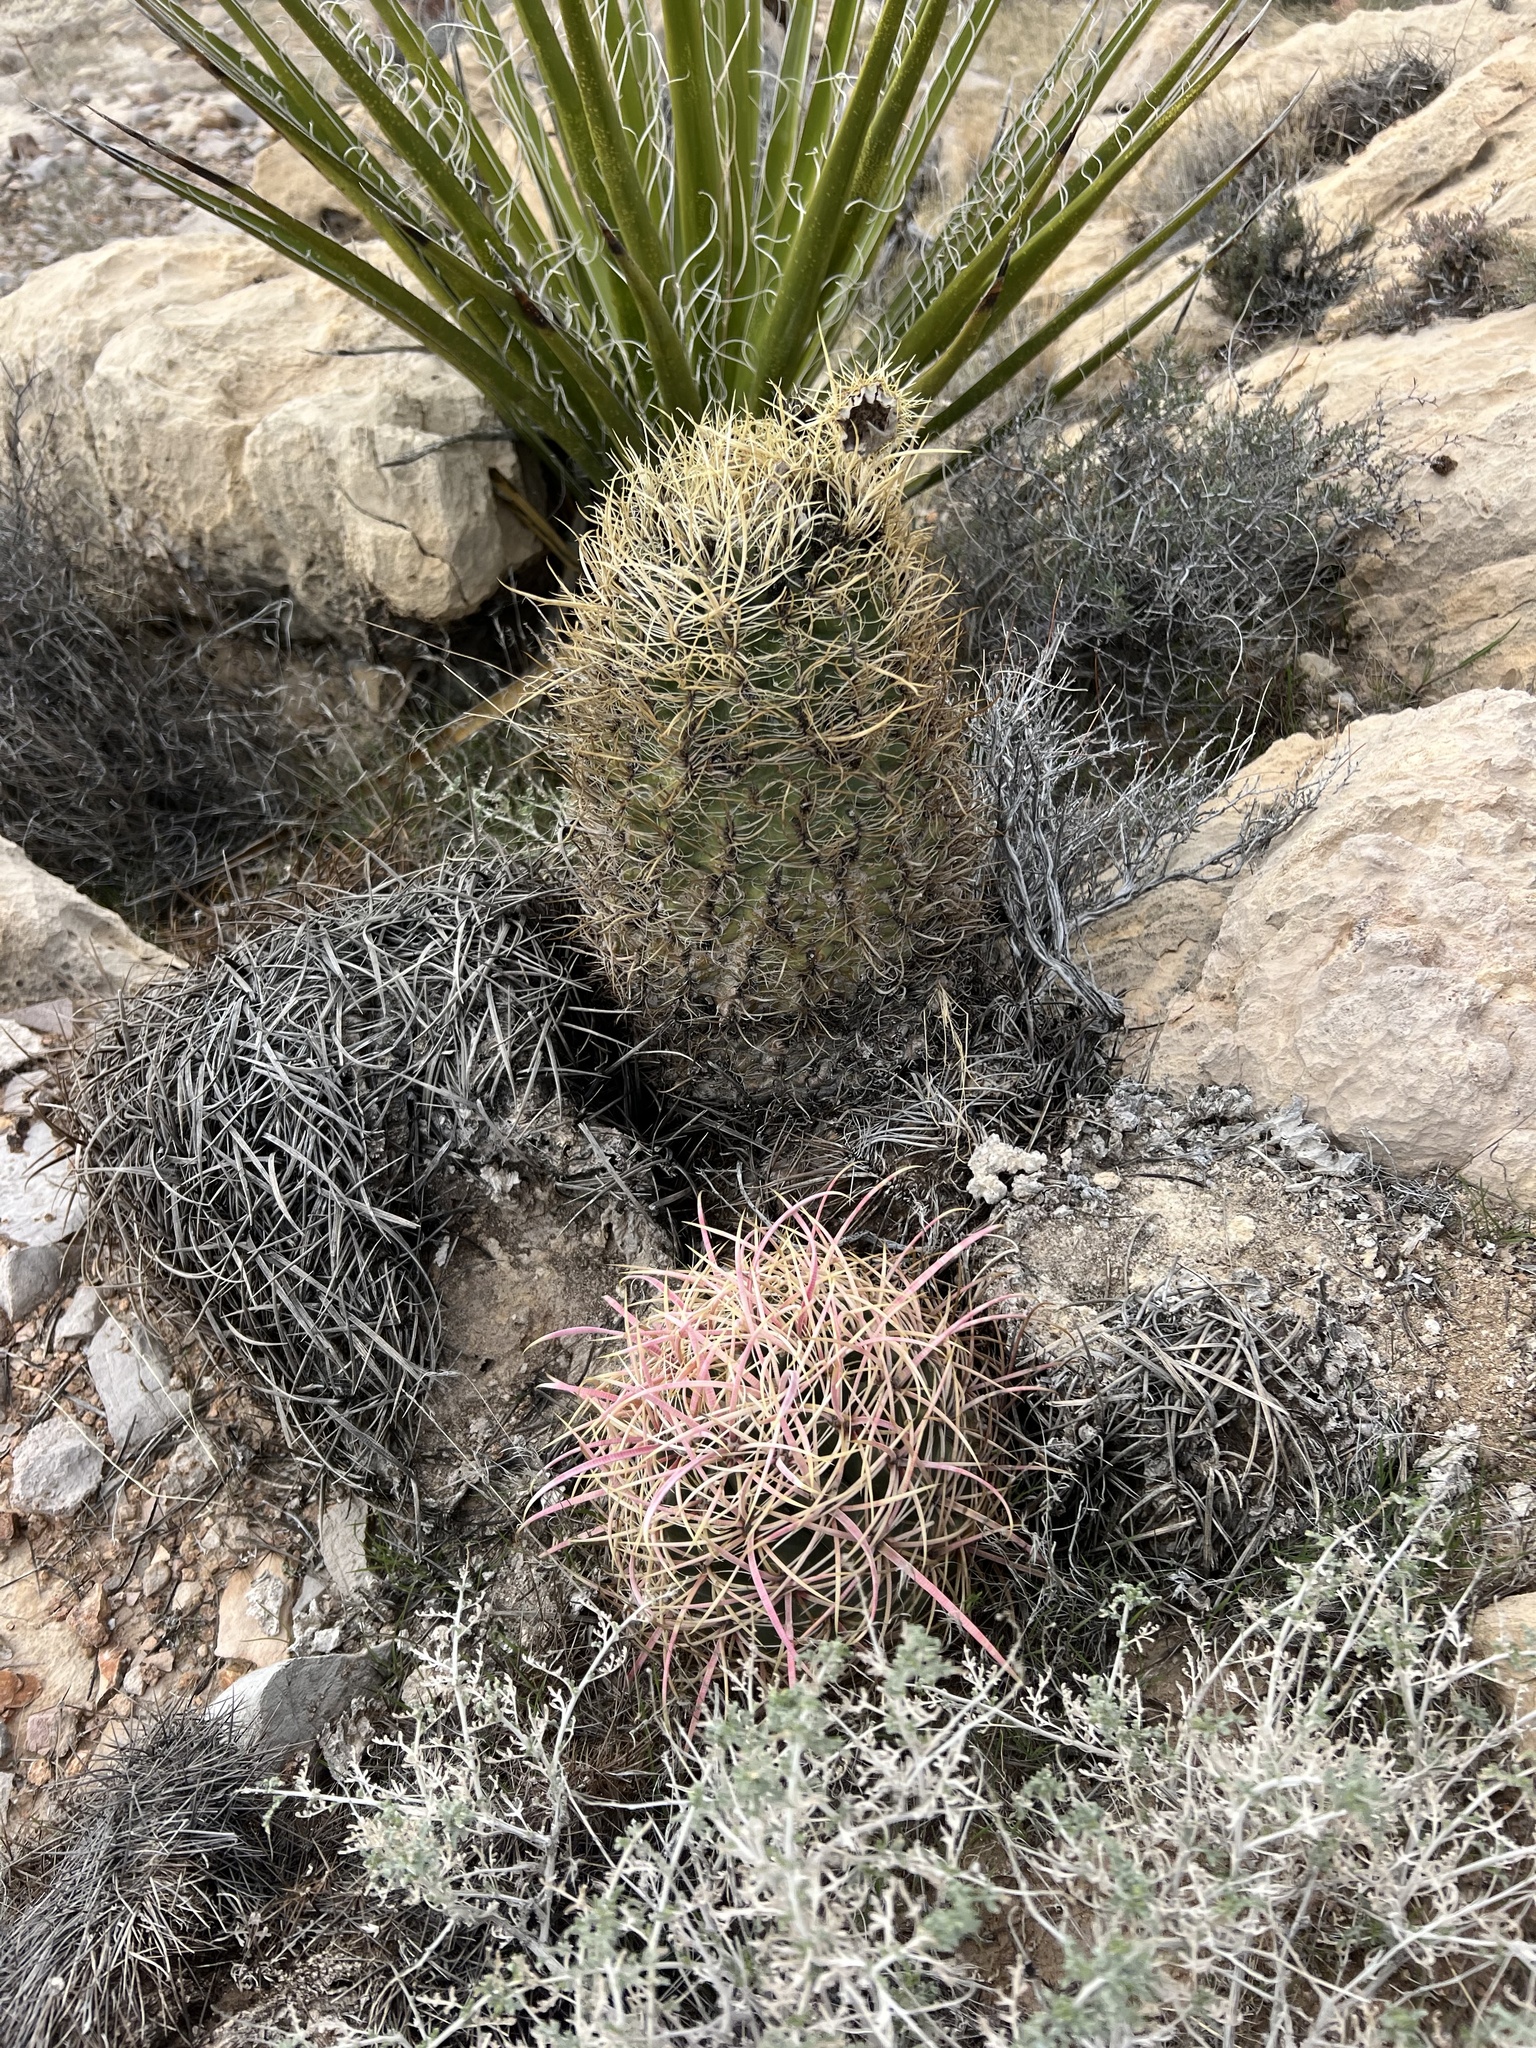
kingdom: Plantae
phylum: Tracheophyta
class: Magnoliopsida
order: Caryophyllales
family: Cactaceae
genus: Ferocactus
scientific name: Ferocactus cylindraceus
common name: California barrel cactus
